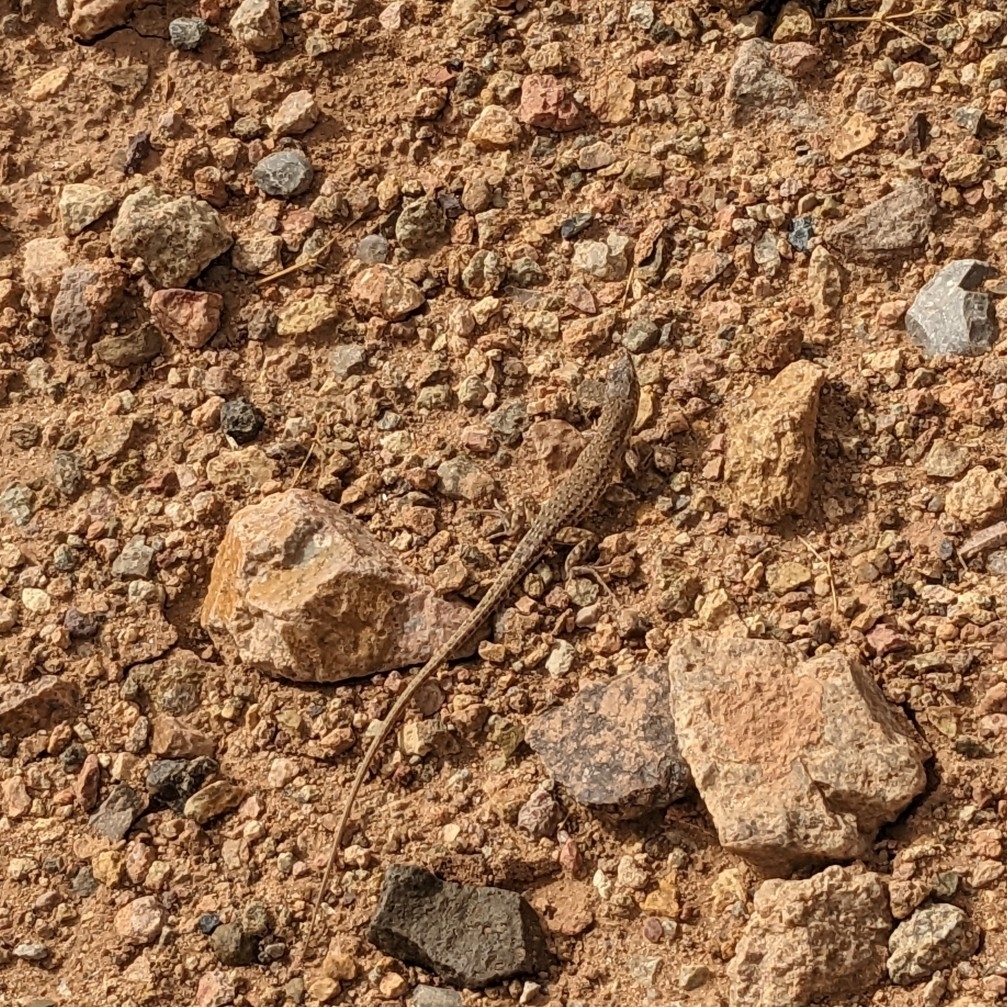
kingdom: Animalia
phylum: Chordata
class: Squamata
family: Lacertidae
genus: Mesalina
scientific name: Mesalina guttulata
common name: Desert lacerta
